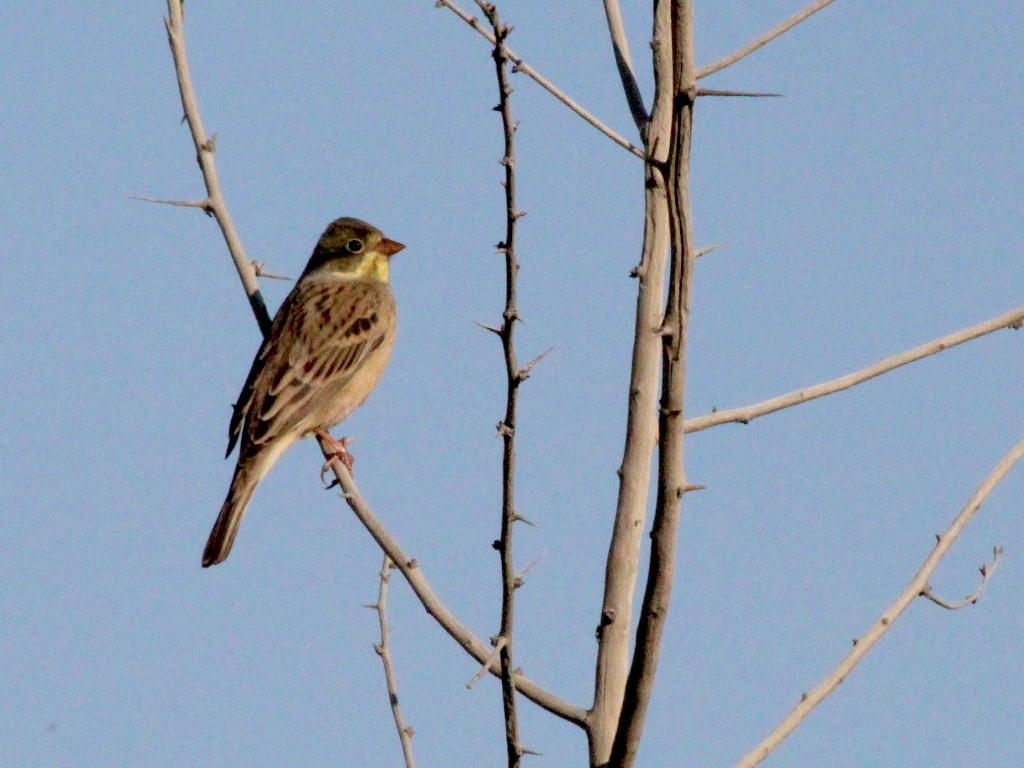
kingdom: Animalia
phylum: Chordata
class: Aves
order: Passeriformes
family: Emberizidae
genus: Emberiza
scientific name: Emberiza hortulana
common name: Ortolan bunting
